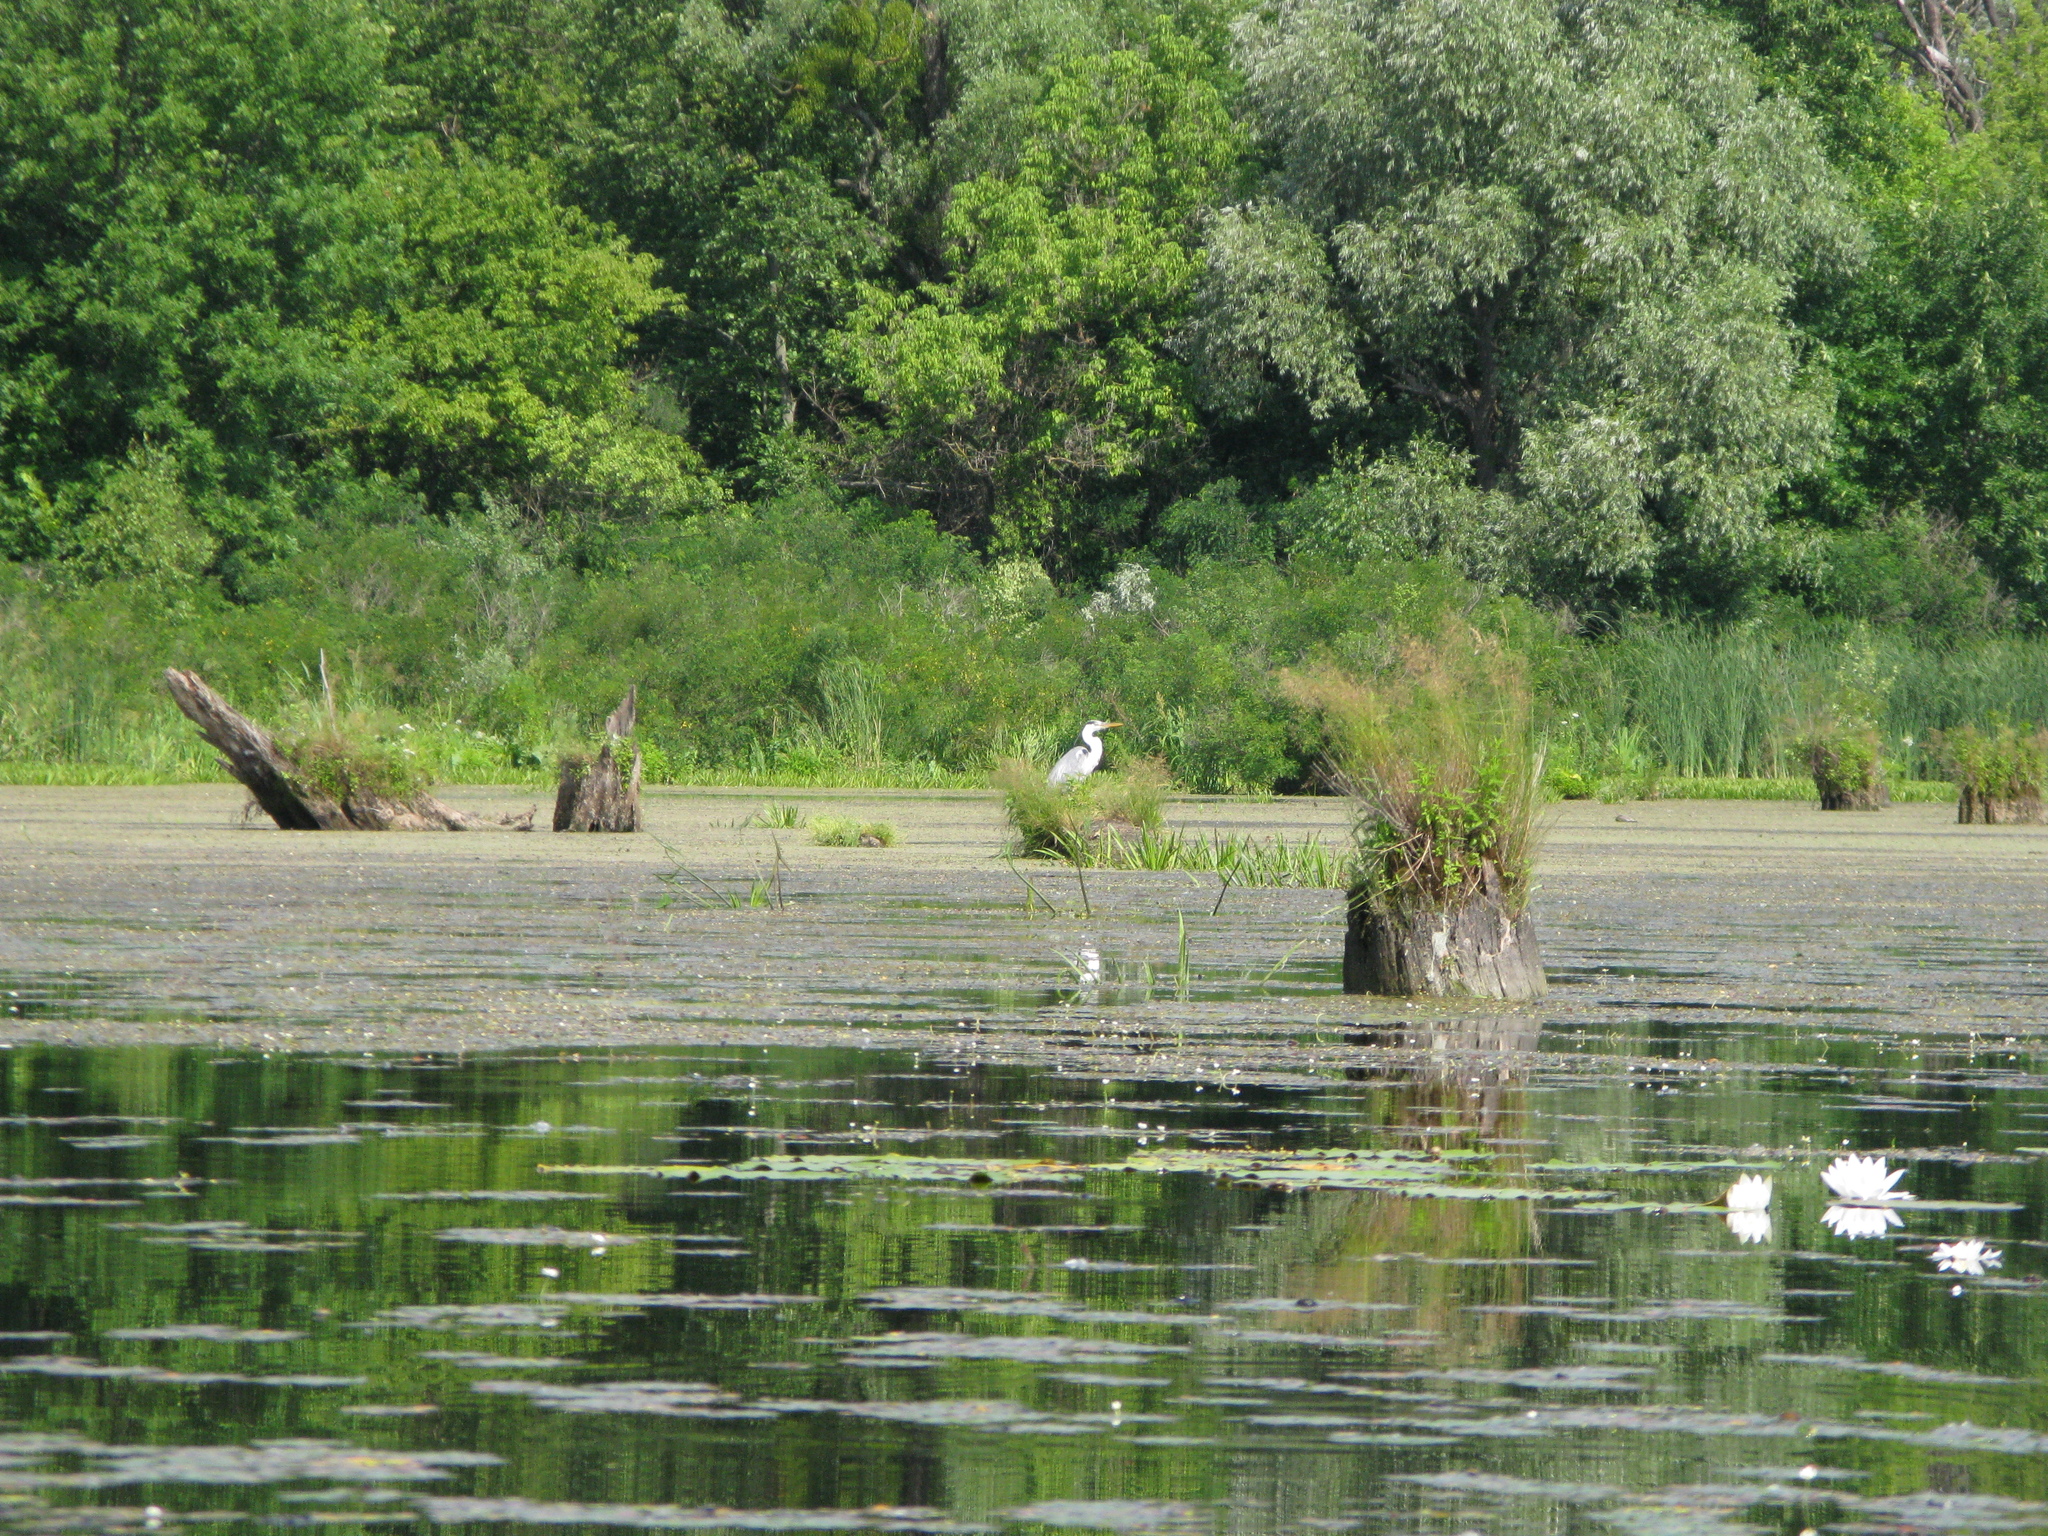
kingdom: Animalia
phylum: Chordata
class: Aves
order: Pelecaniformes
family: Ardeidae
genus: Ardea
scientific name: Ardea cinerea
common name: Grey heron
